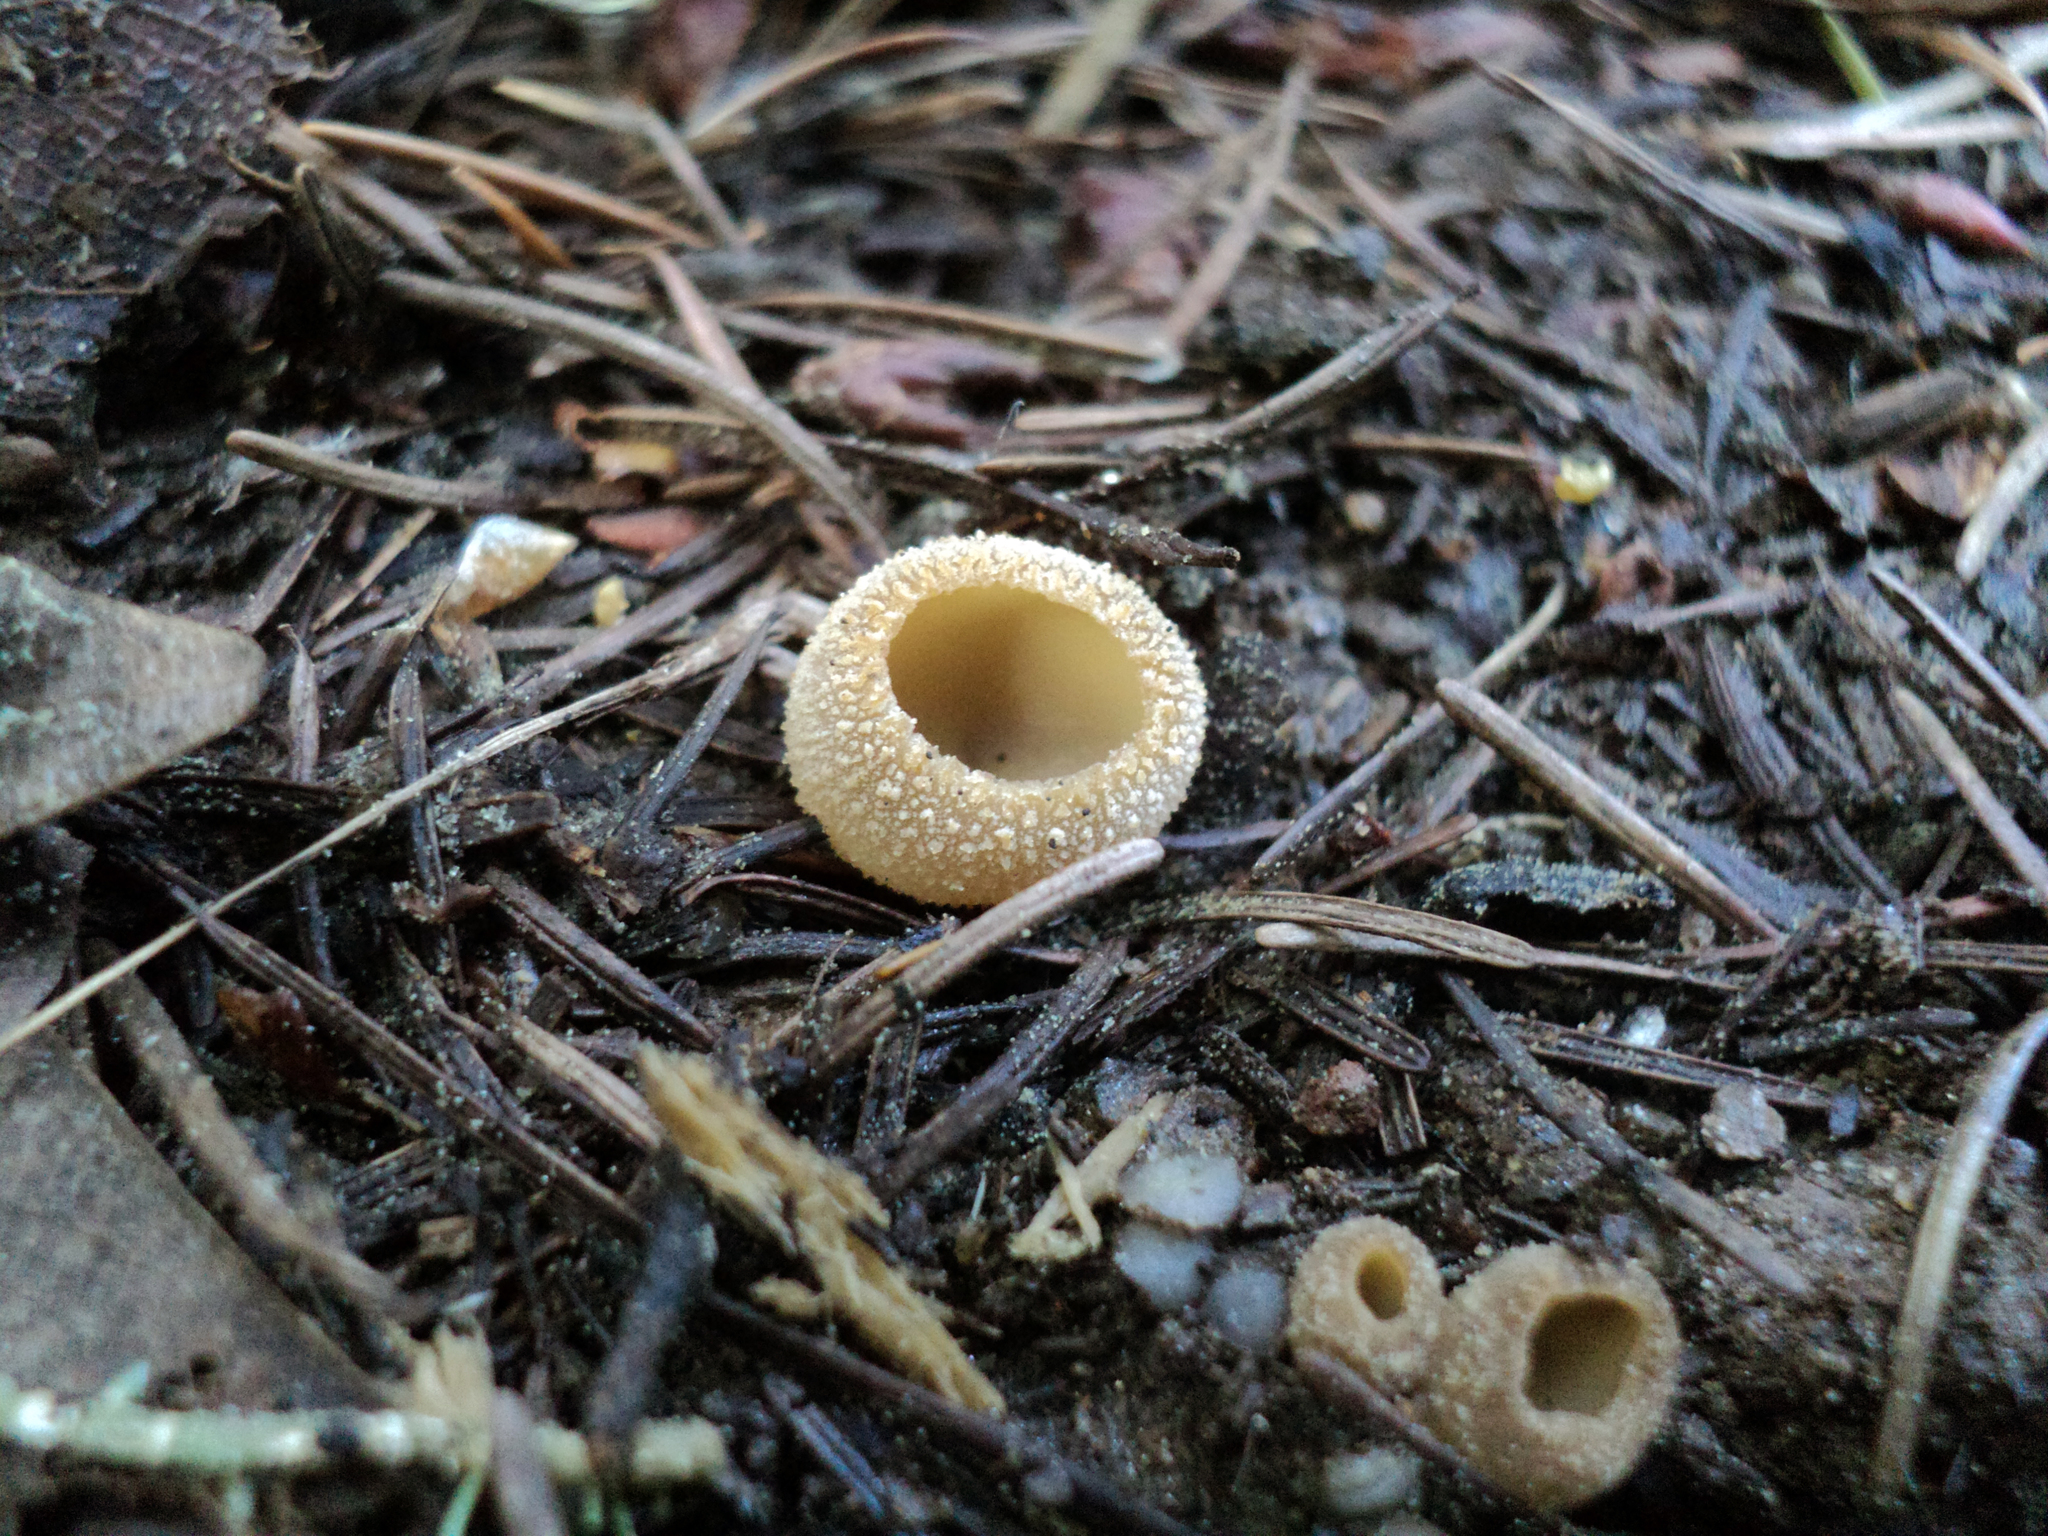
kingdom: Fungi
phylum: Ascomycota
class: Pezizomycetes
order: Pezizales
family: Tarzettaceae
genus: Tarzetta
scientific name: Tarzetta cupularis
